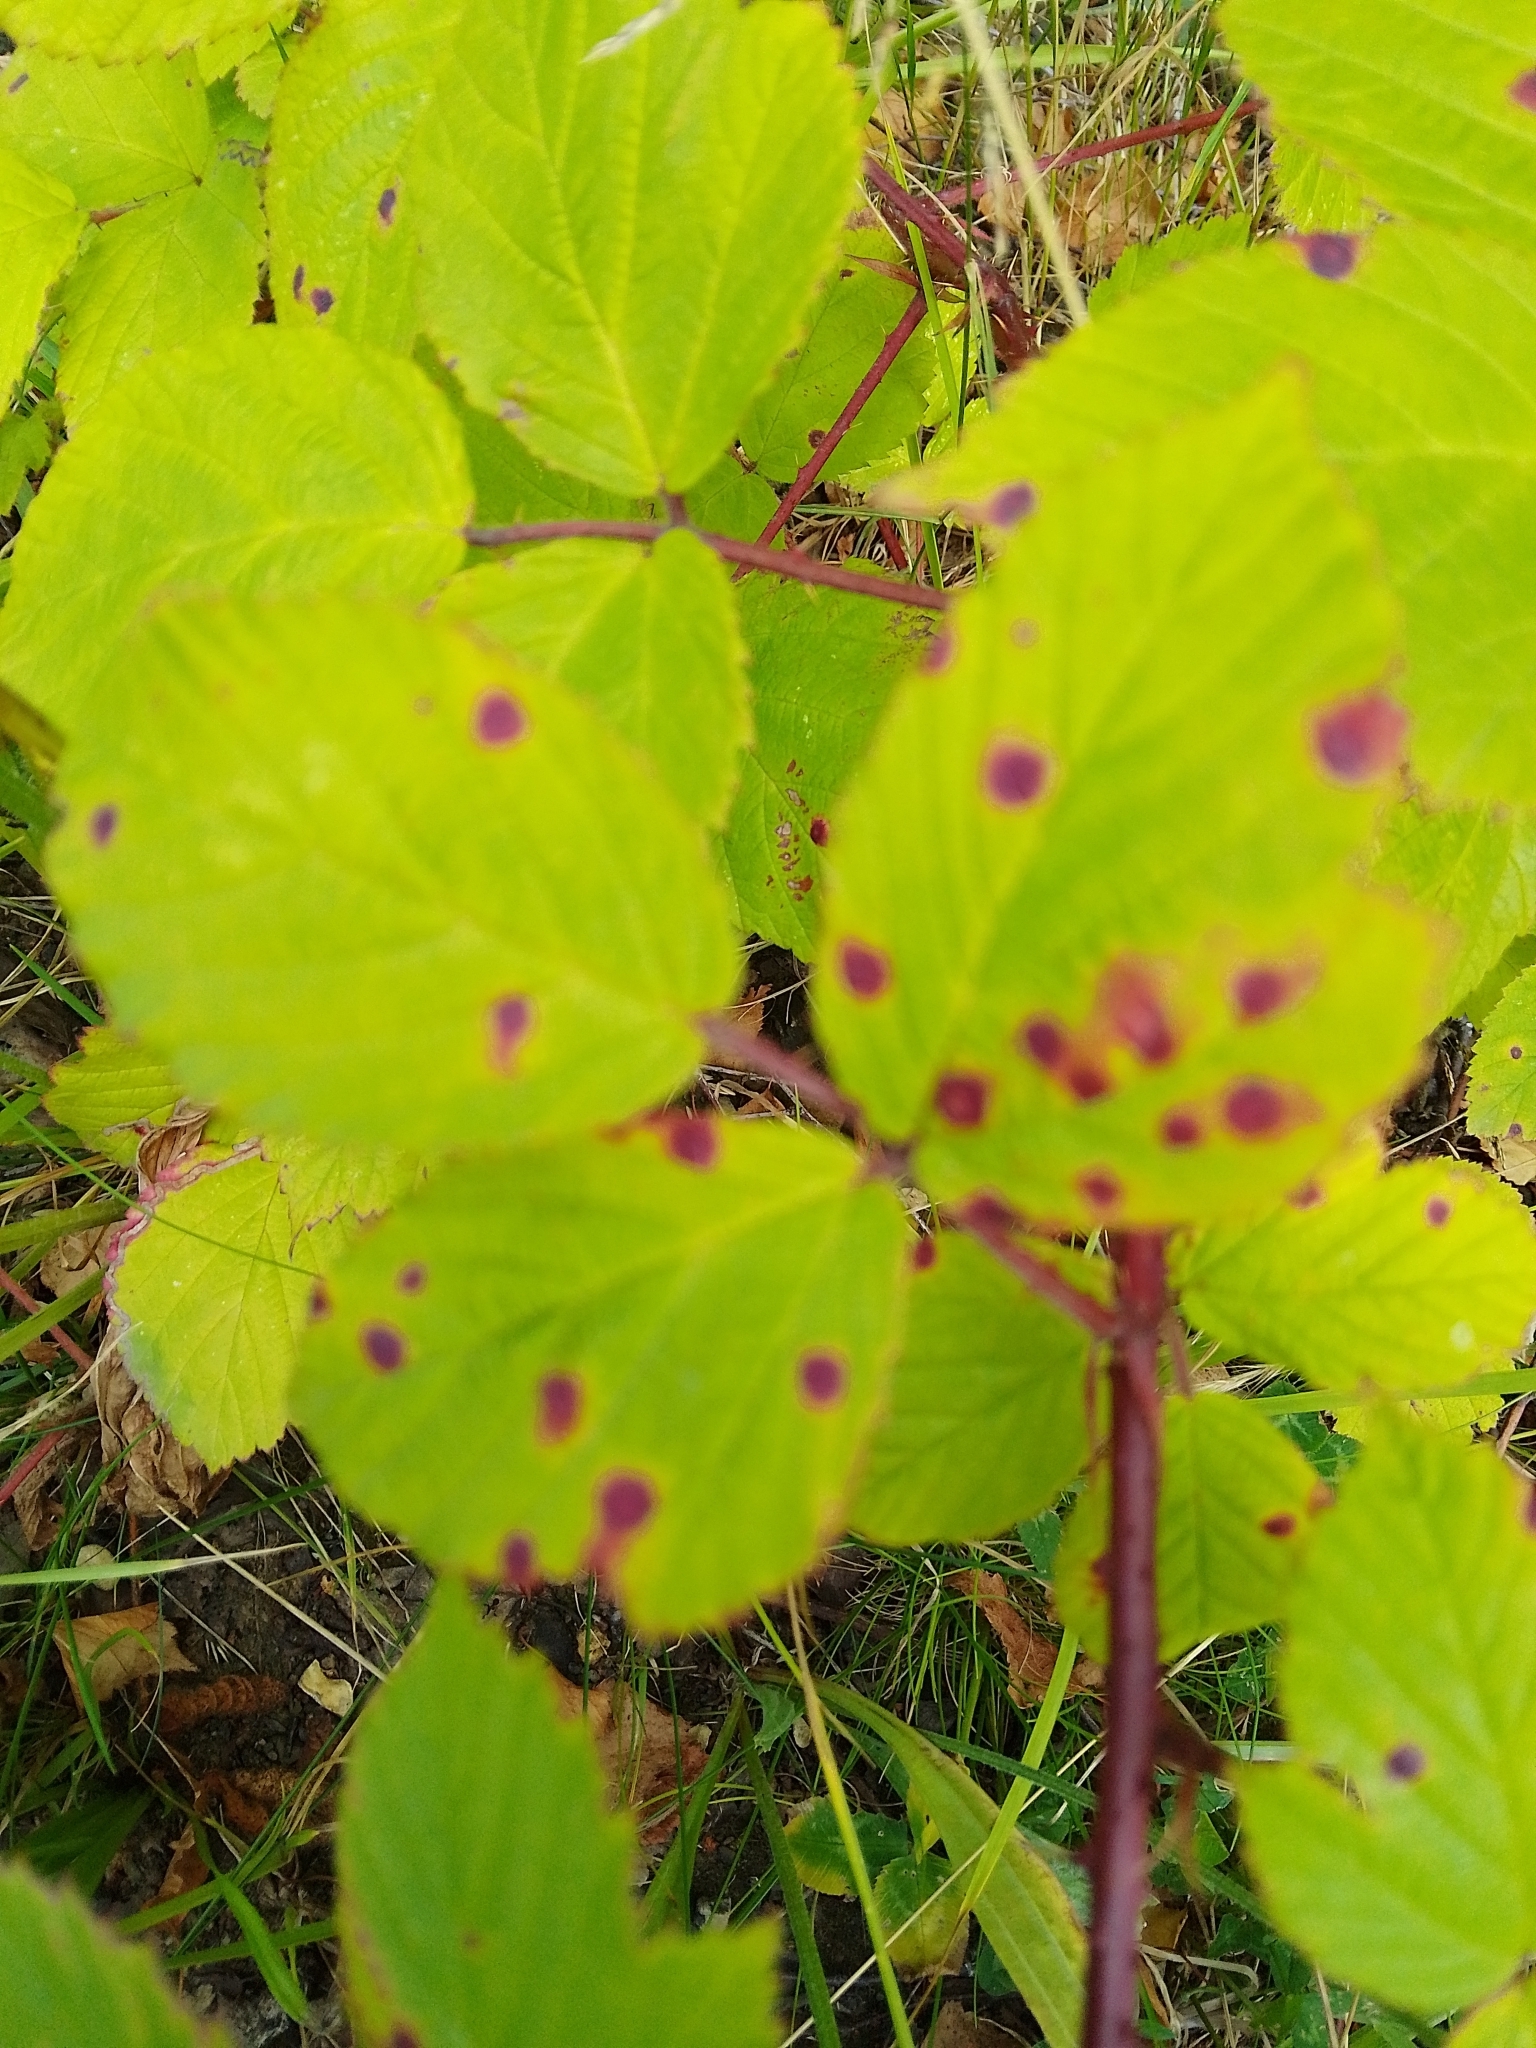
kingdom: Fungi
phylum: Basidiomycota
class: Pucciniomycetes
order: Pucciniales
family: Phragmidiaceae
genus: Phragmidium
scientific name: Phragmidium violaceum
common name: Violet bramble rust
